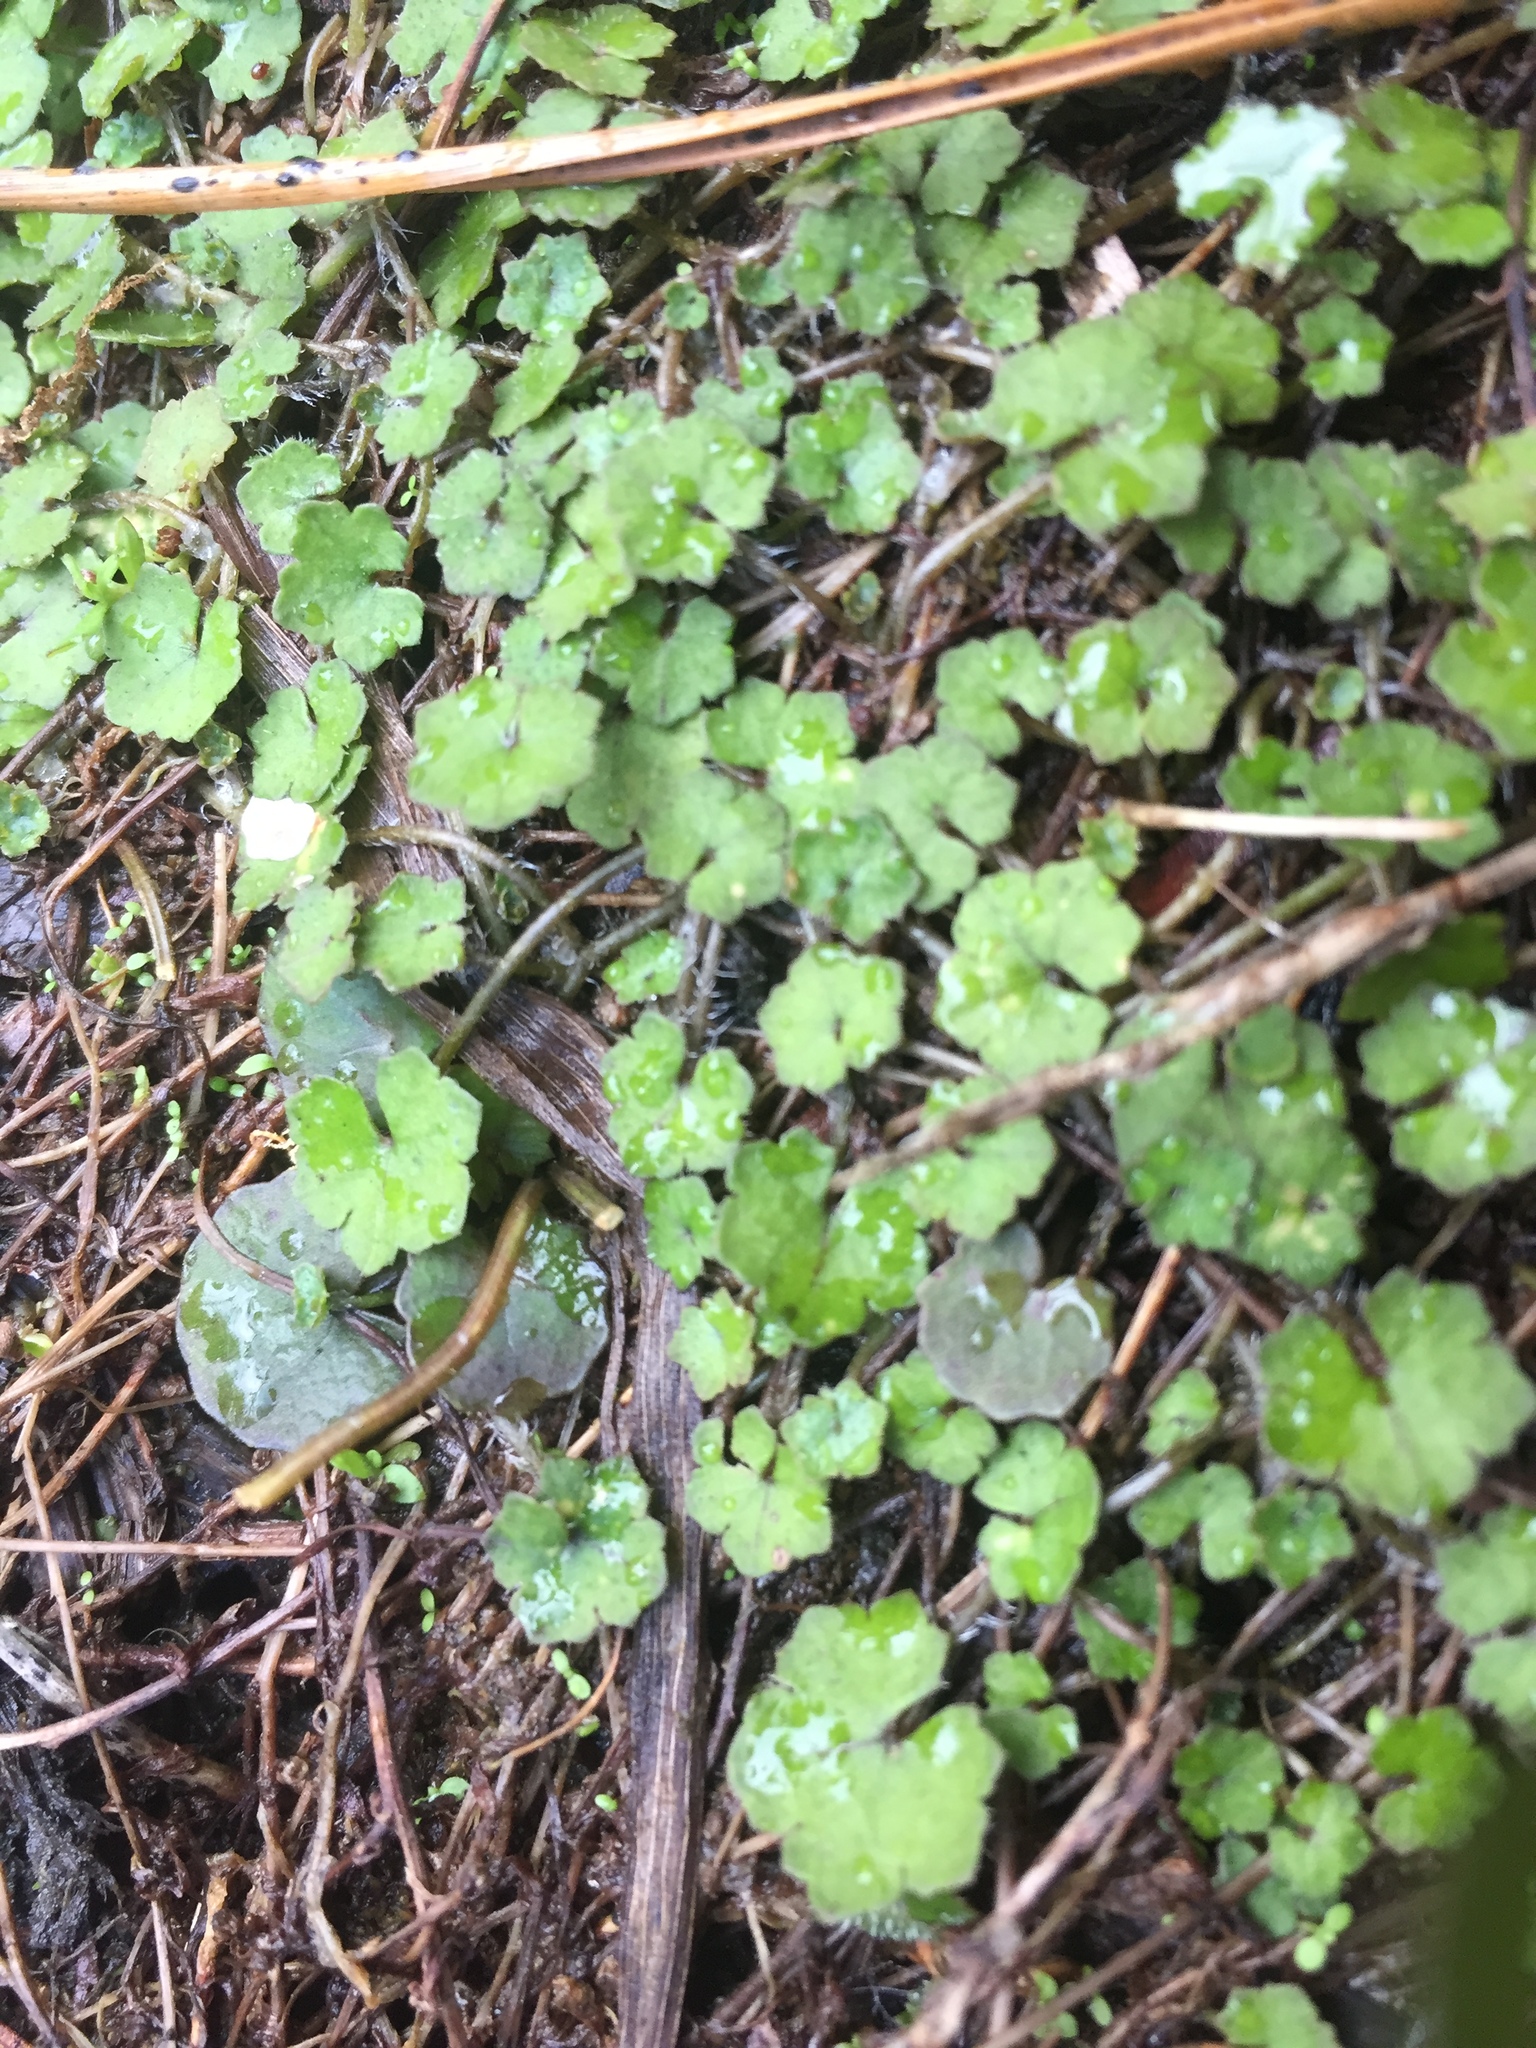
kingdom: Plantae
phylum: Tracheophyta
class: Magnoliopsida
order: Apiales
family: Araliaceae
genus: Hydrocotyle
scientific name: Hydrocotyle novae-zeelandiae
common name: New zealand pennywort
